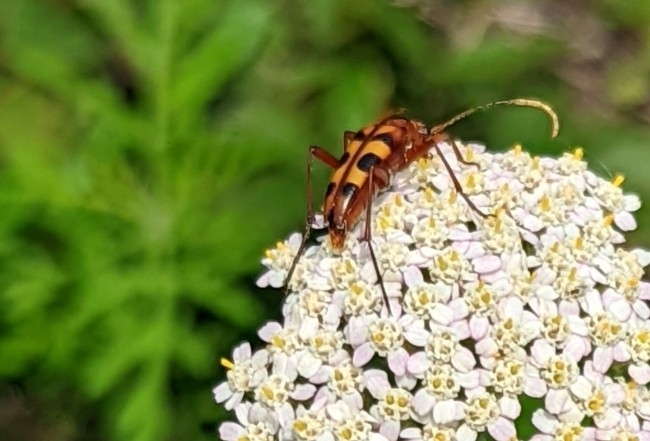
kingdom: Animalia
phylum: Arthropoda
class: Insecta
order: Coleoptera
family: Cerambycidae
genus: Strangalia
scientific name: Strangalia sexnotata
